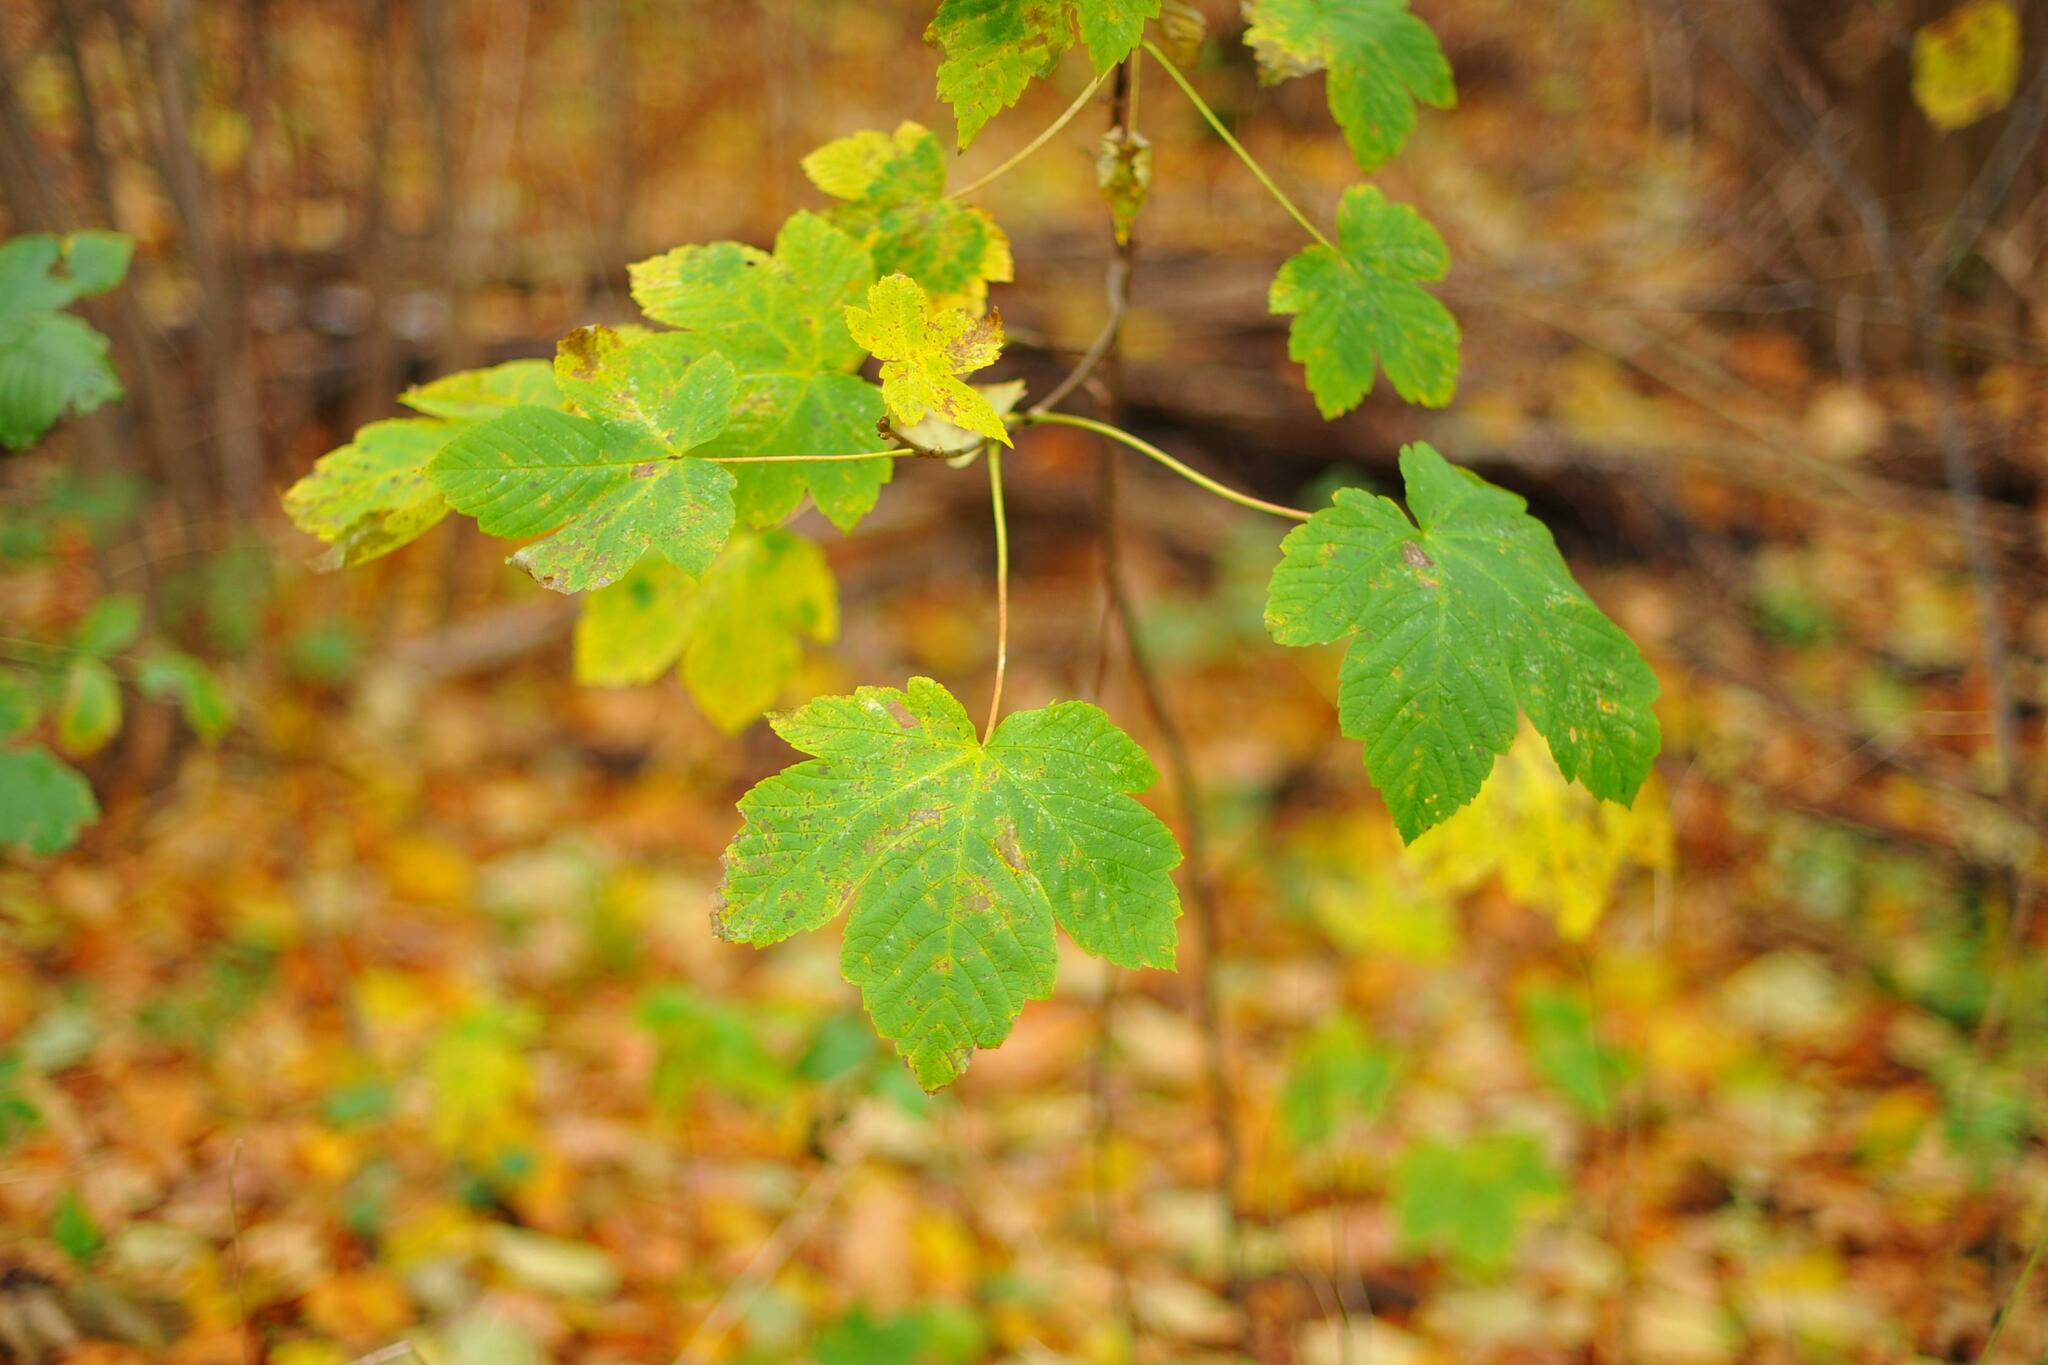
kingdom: Plantae
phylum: Tracheophyta
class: Magnoliopsida
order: Sapindales
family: Sapindaceae
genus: Acer
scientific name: Acer pseudoplatanus
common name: Sycamore
